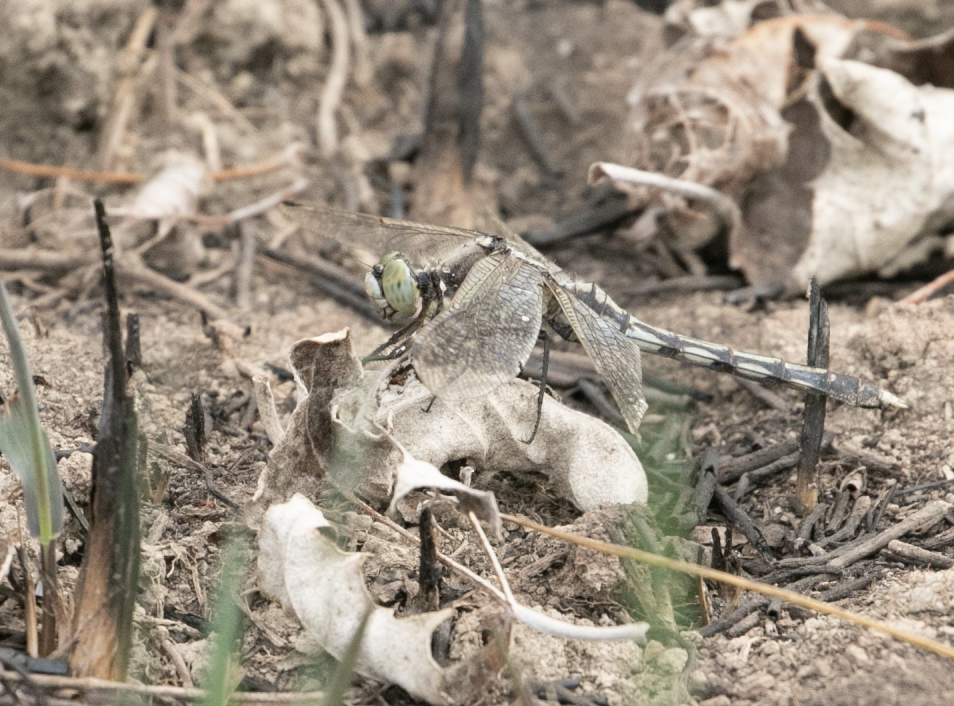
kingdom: Animalia
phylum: Arthropoda
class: Insecta
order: Odonata
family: Libellulidae
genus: Orthetrum
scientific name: Orthetrum albistylum
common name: White-tailed skimmer
